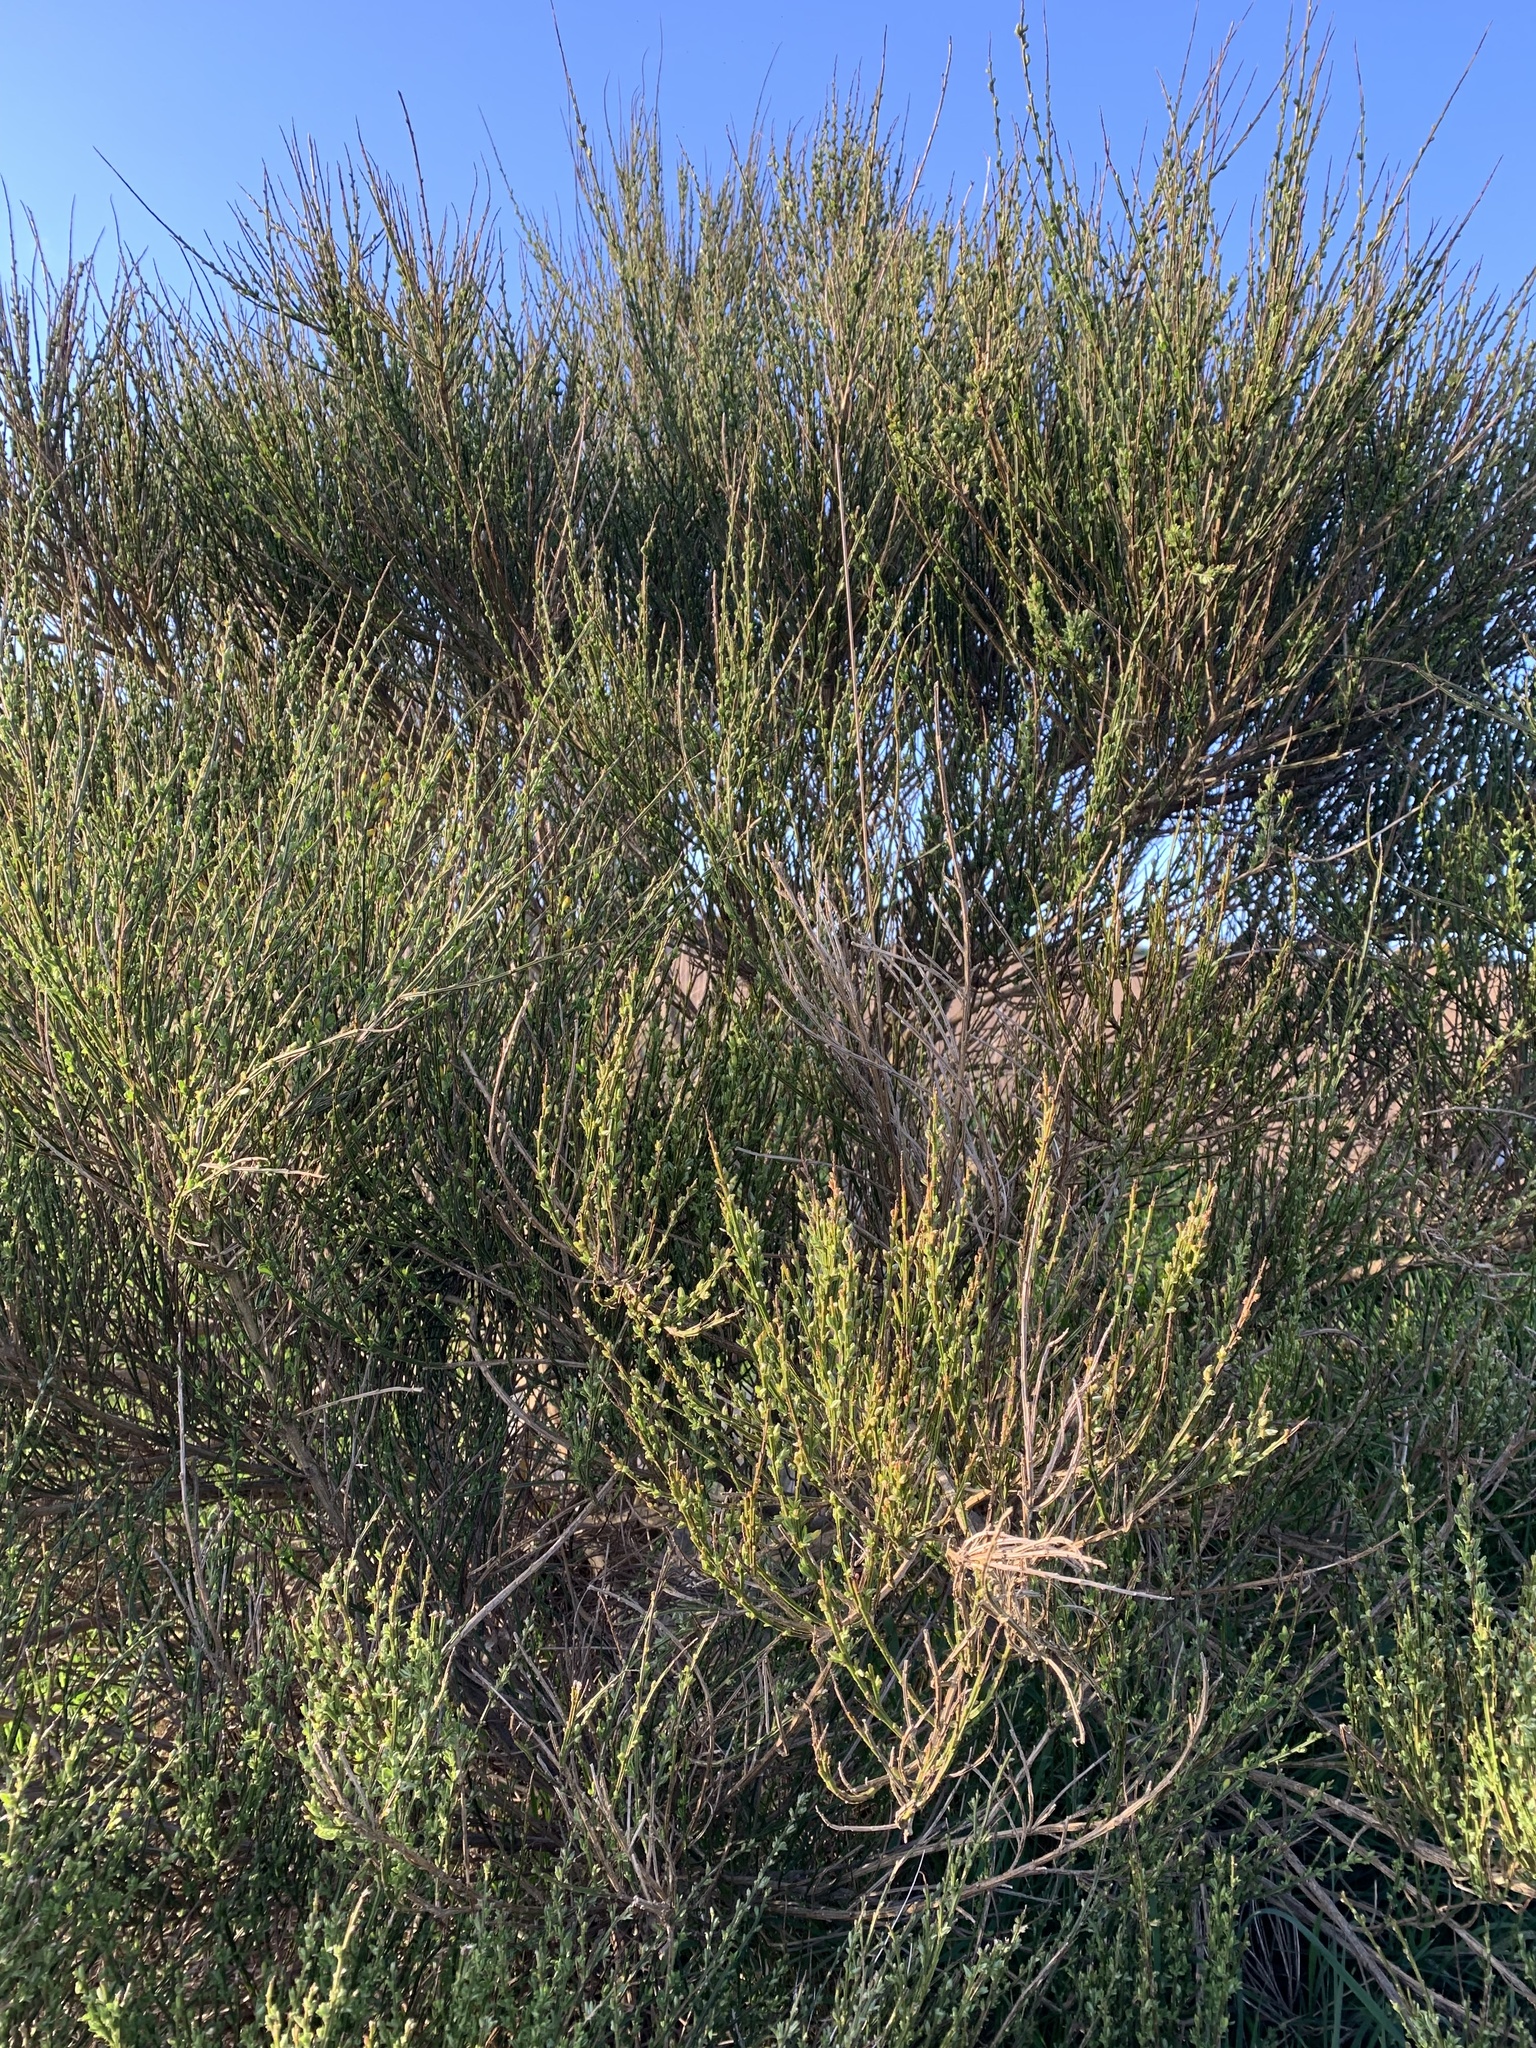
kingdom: Plantae
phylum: Tracheophyta
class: Magnoliopsida
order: Fabales
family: Fabaceae
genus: Cytisus
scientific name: Cytisus scoparius
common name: Scotch broom
